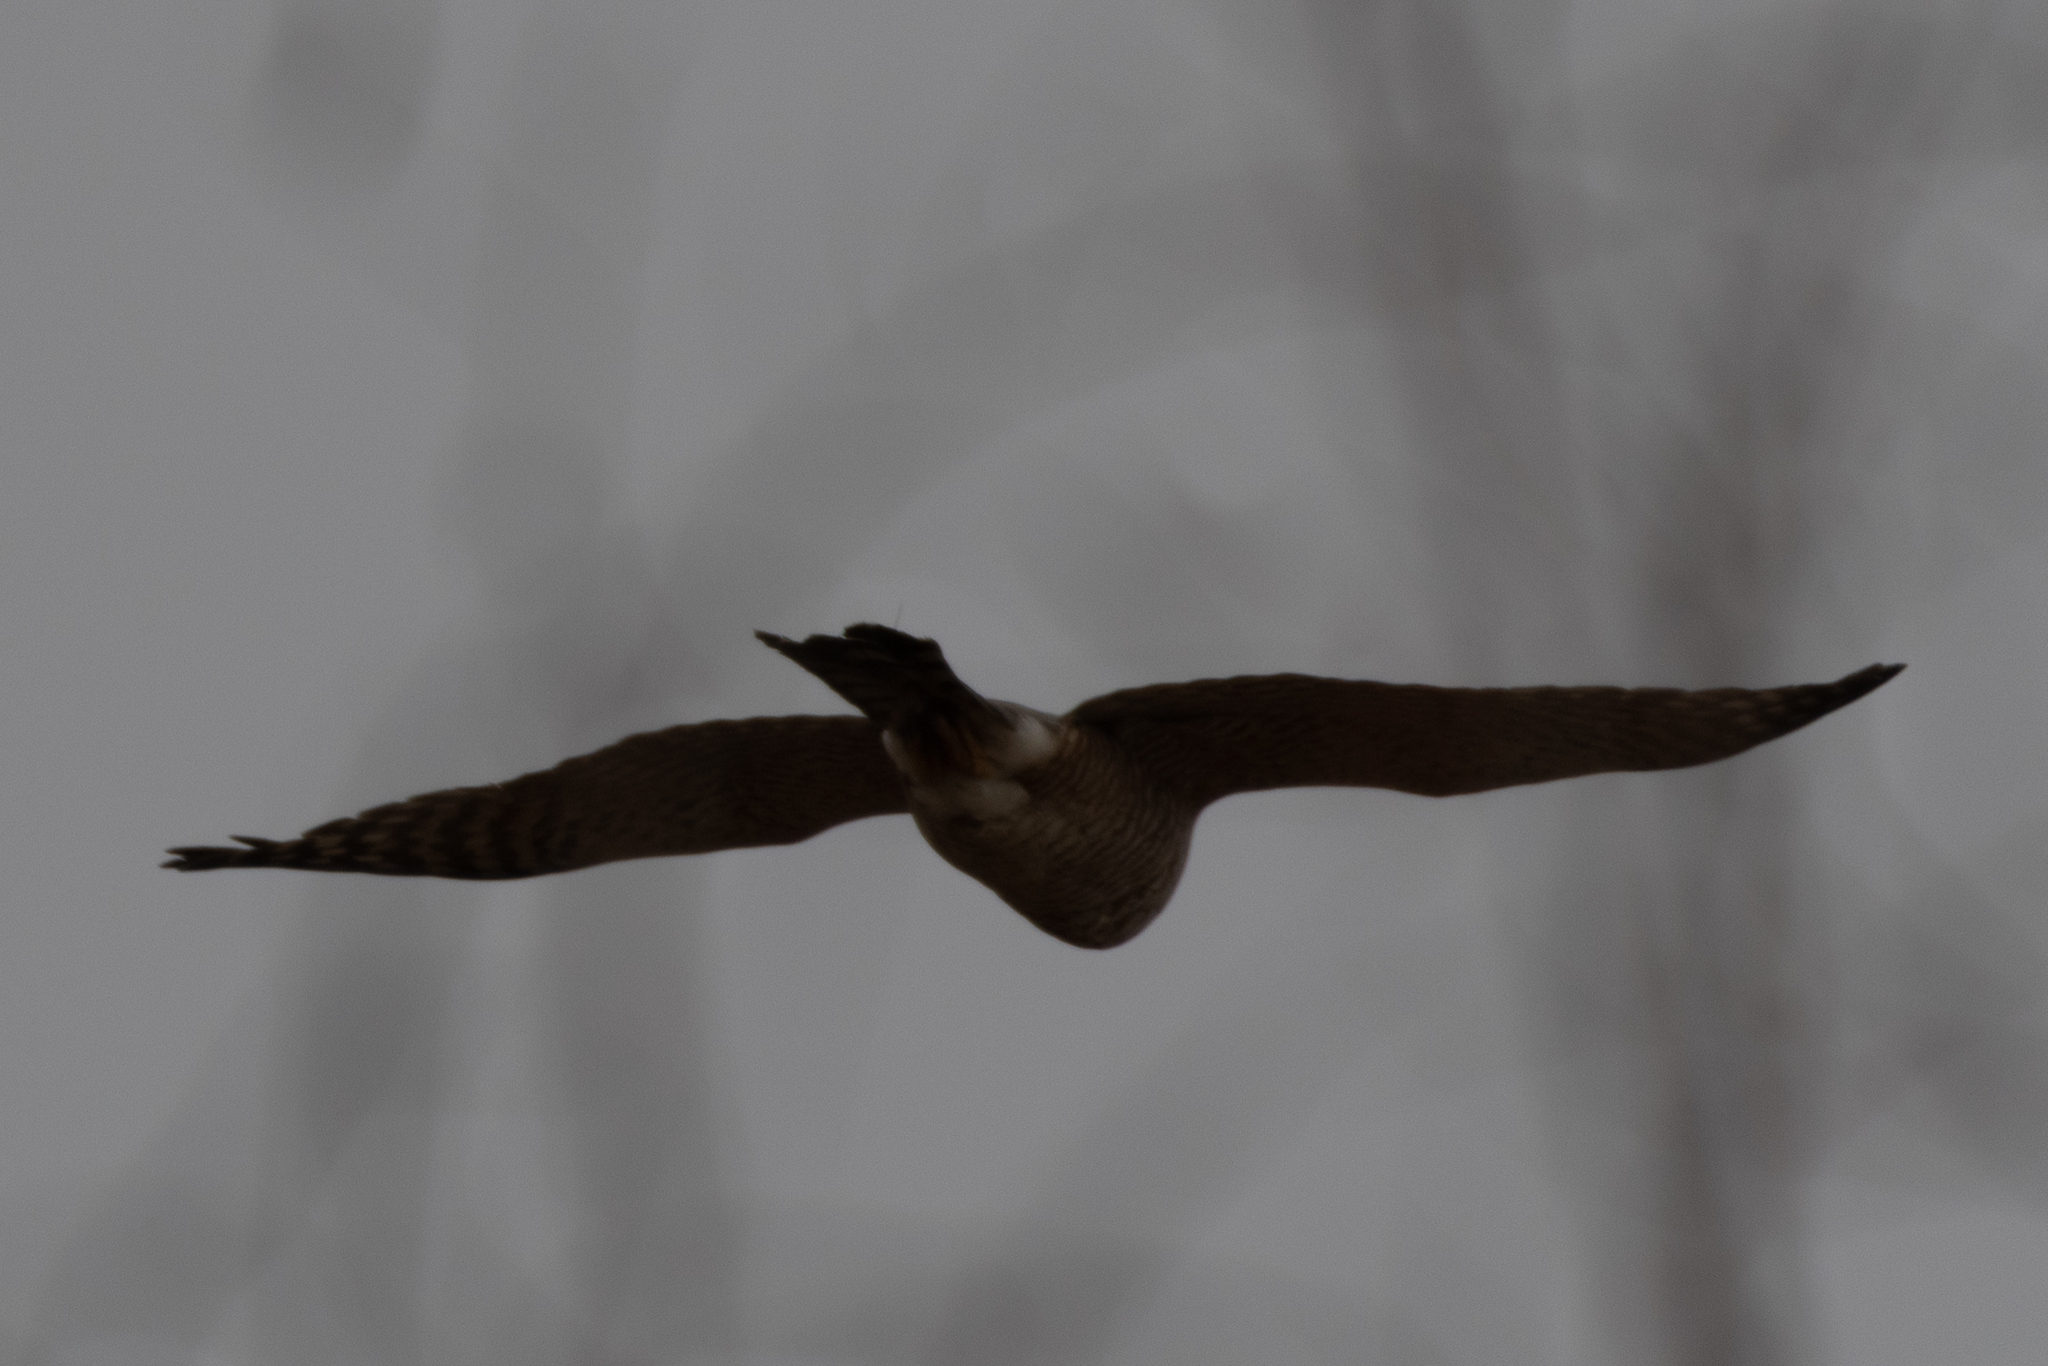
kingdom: Animalia
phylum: Chordata
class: Aves
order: Accipitriformes
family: Accipitridae
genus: Accipiter
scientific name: Accipiter
